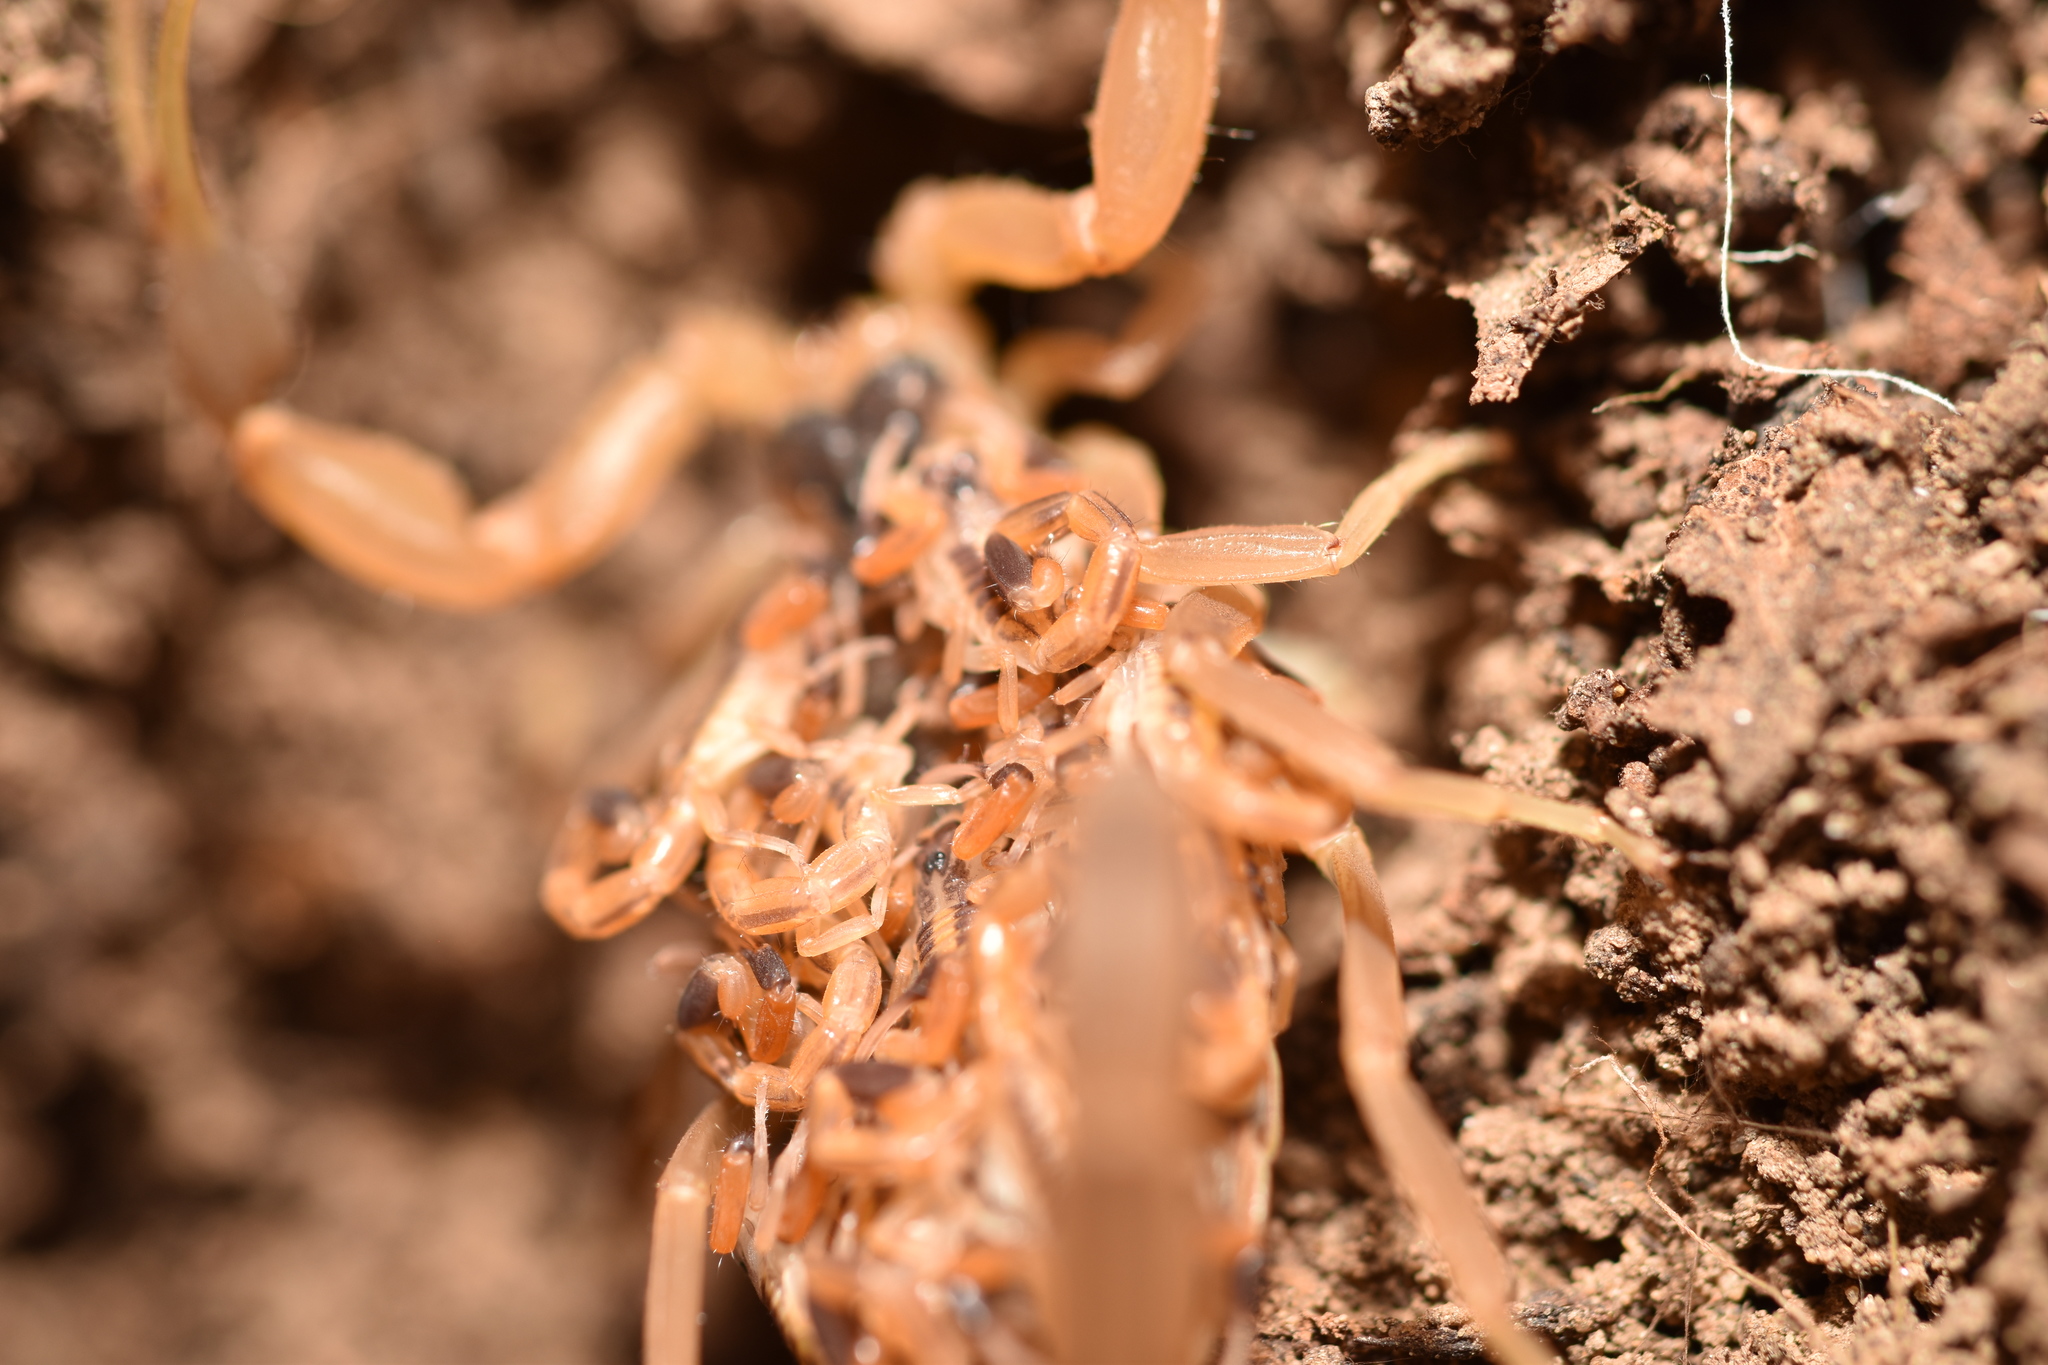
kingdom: Animalia
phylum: Arthropoda
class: Arachnida
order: Scorpiones
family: Buthidae
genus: Centruroides
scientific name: Centruroides vittatus
